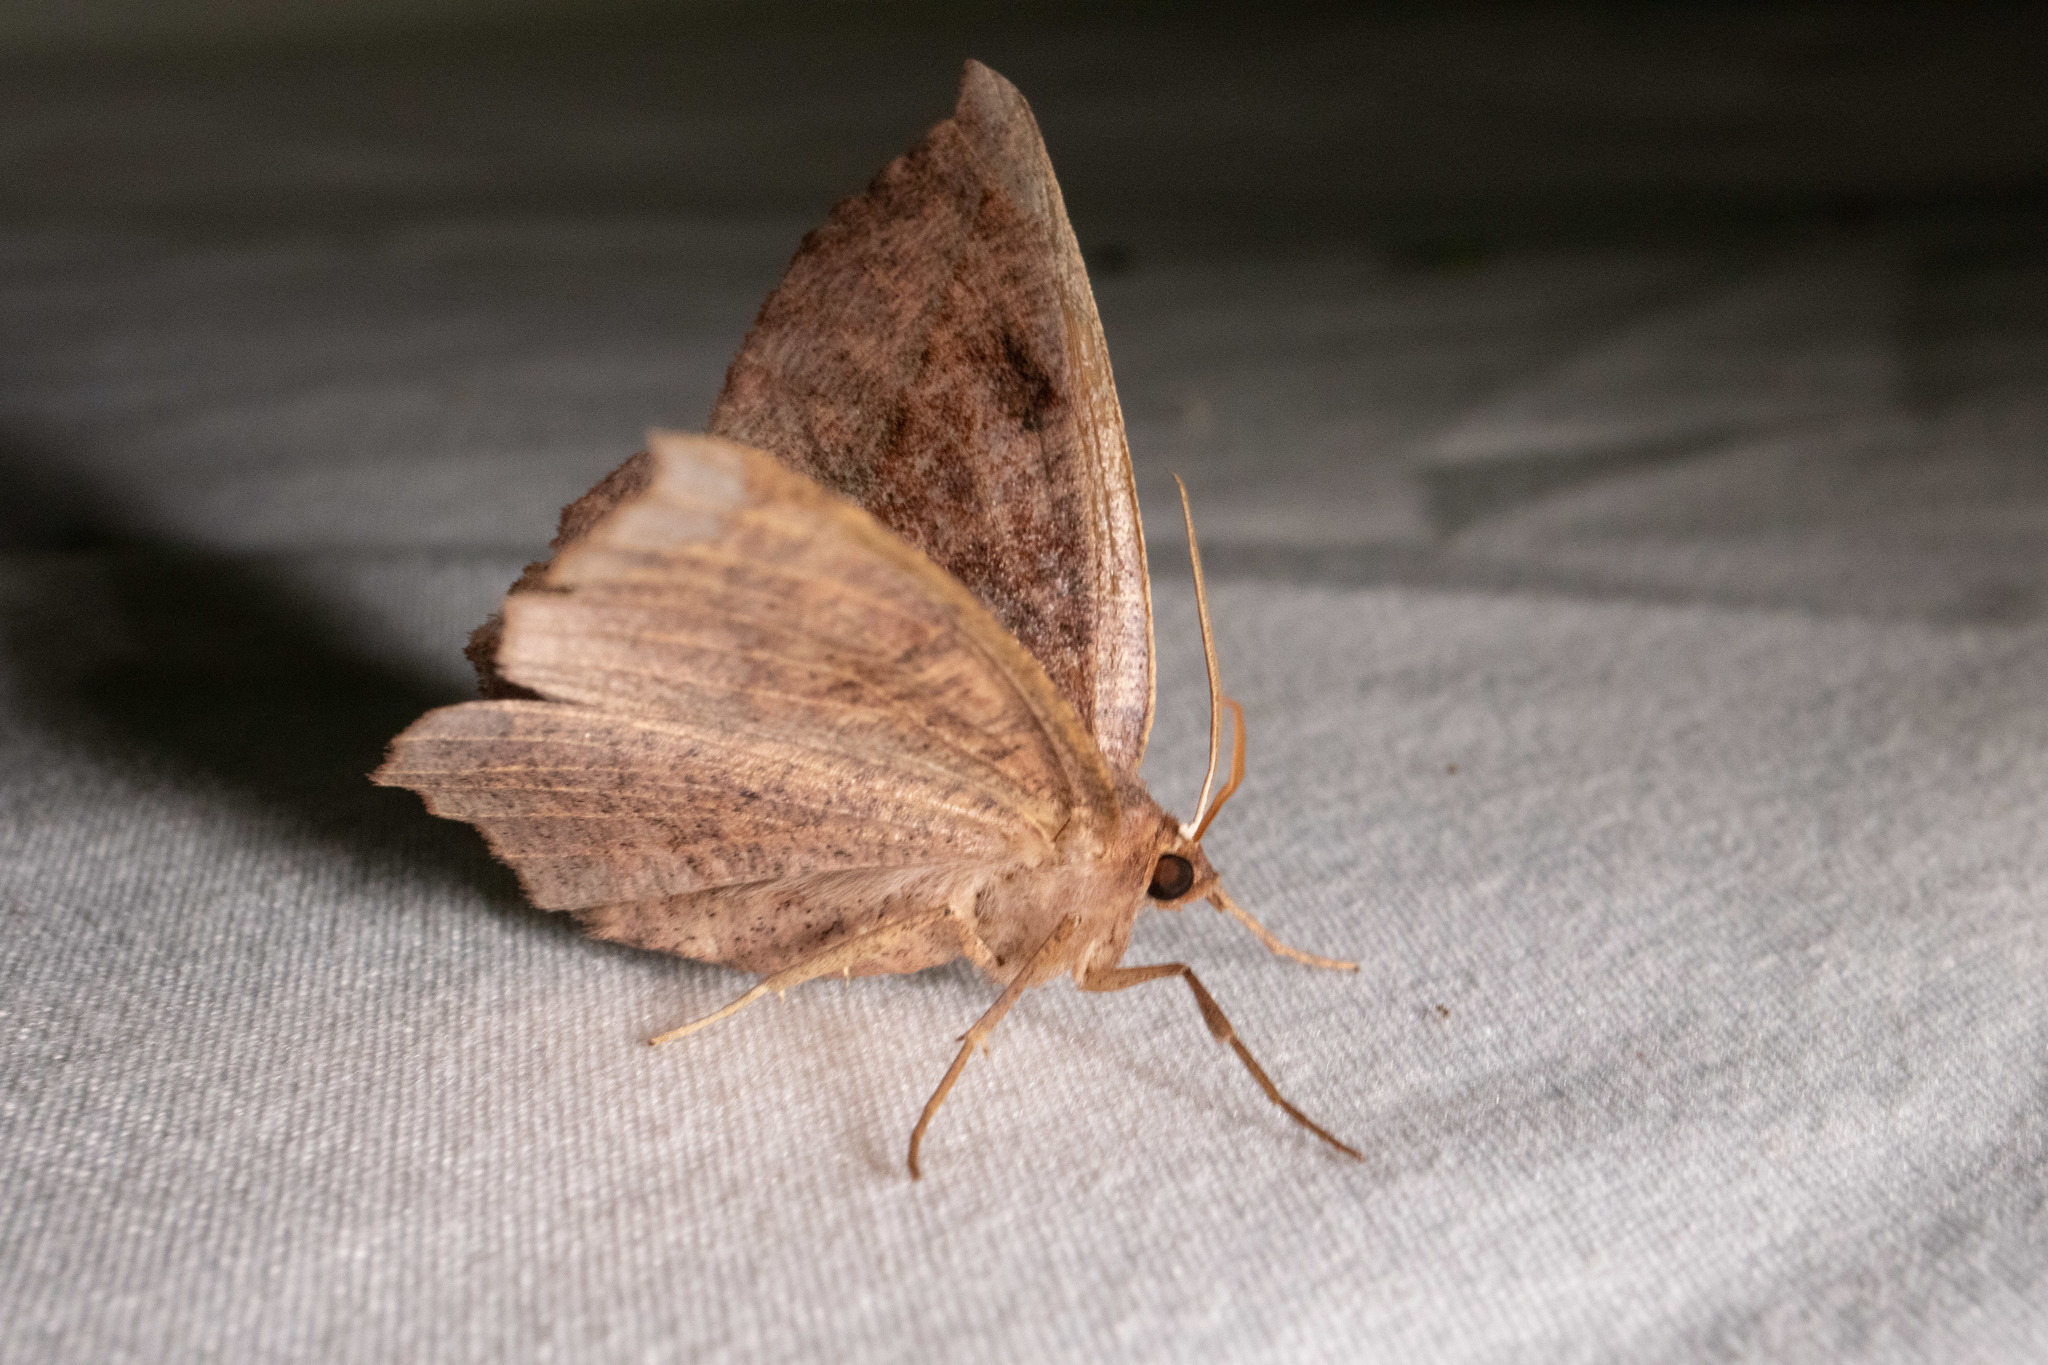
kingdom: Animalia
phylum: Arthropoda
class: Insecta
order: Lepidoptera
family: Geometridae
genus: Eutrapela
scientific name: Eutrapela clemataria
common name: Curved-toothed geometer
